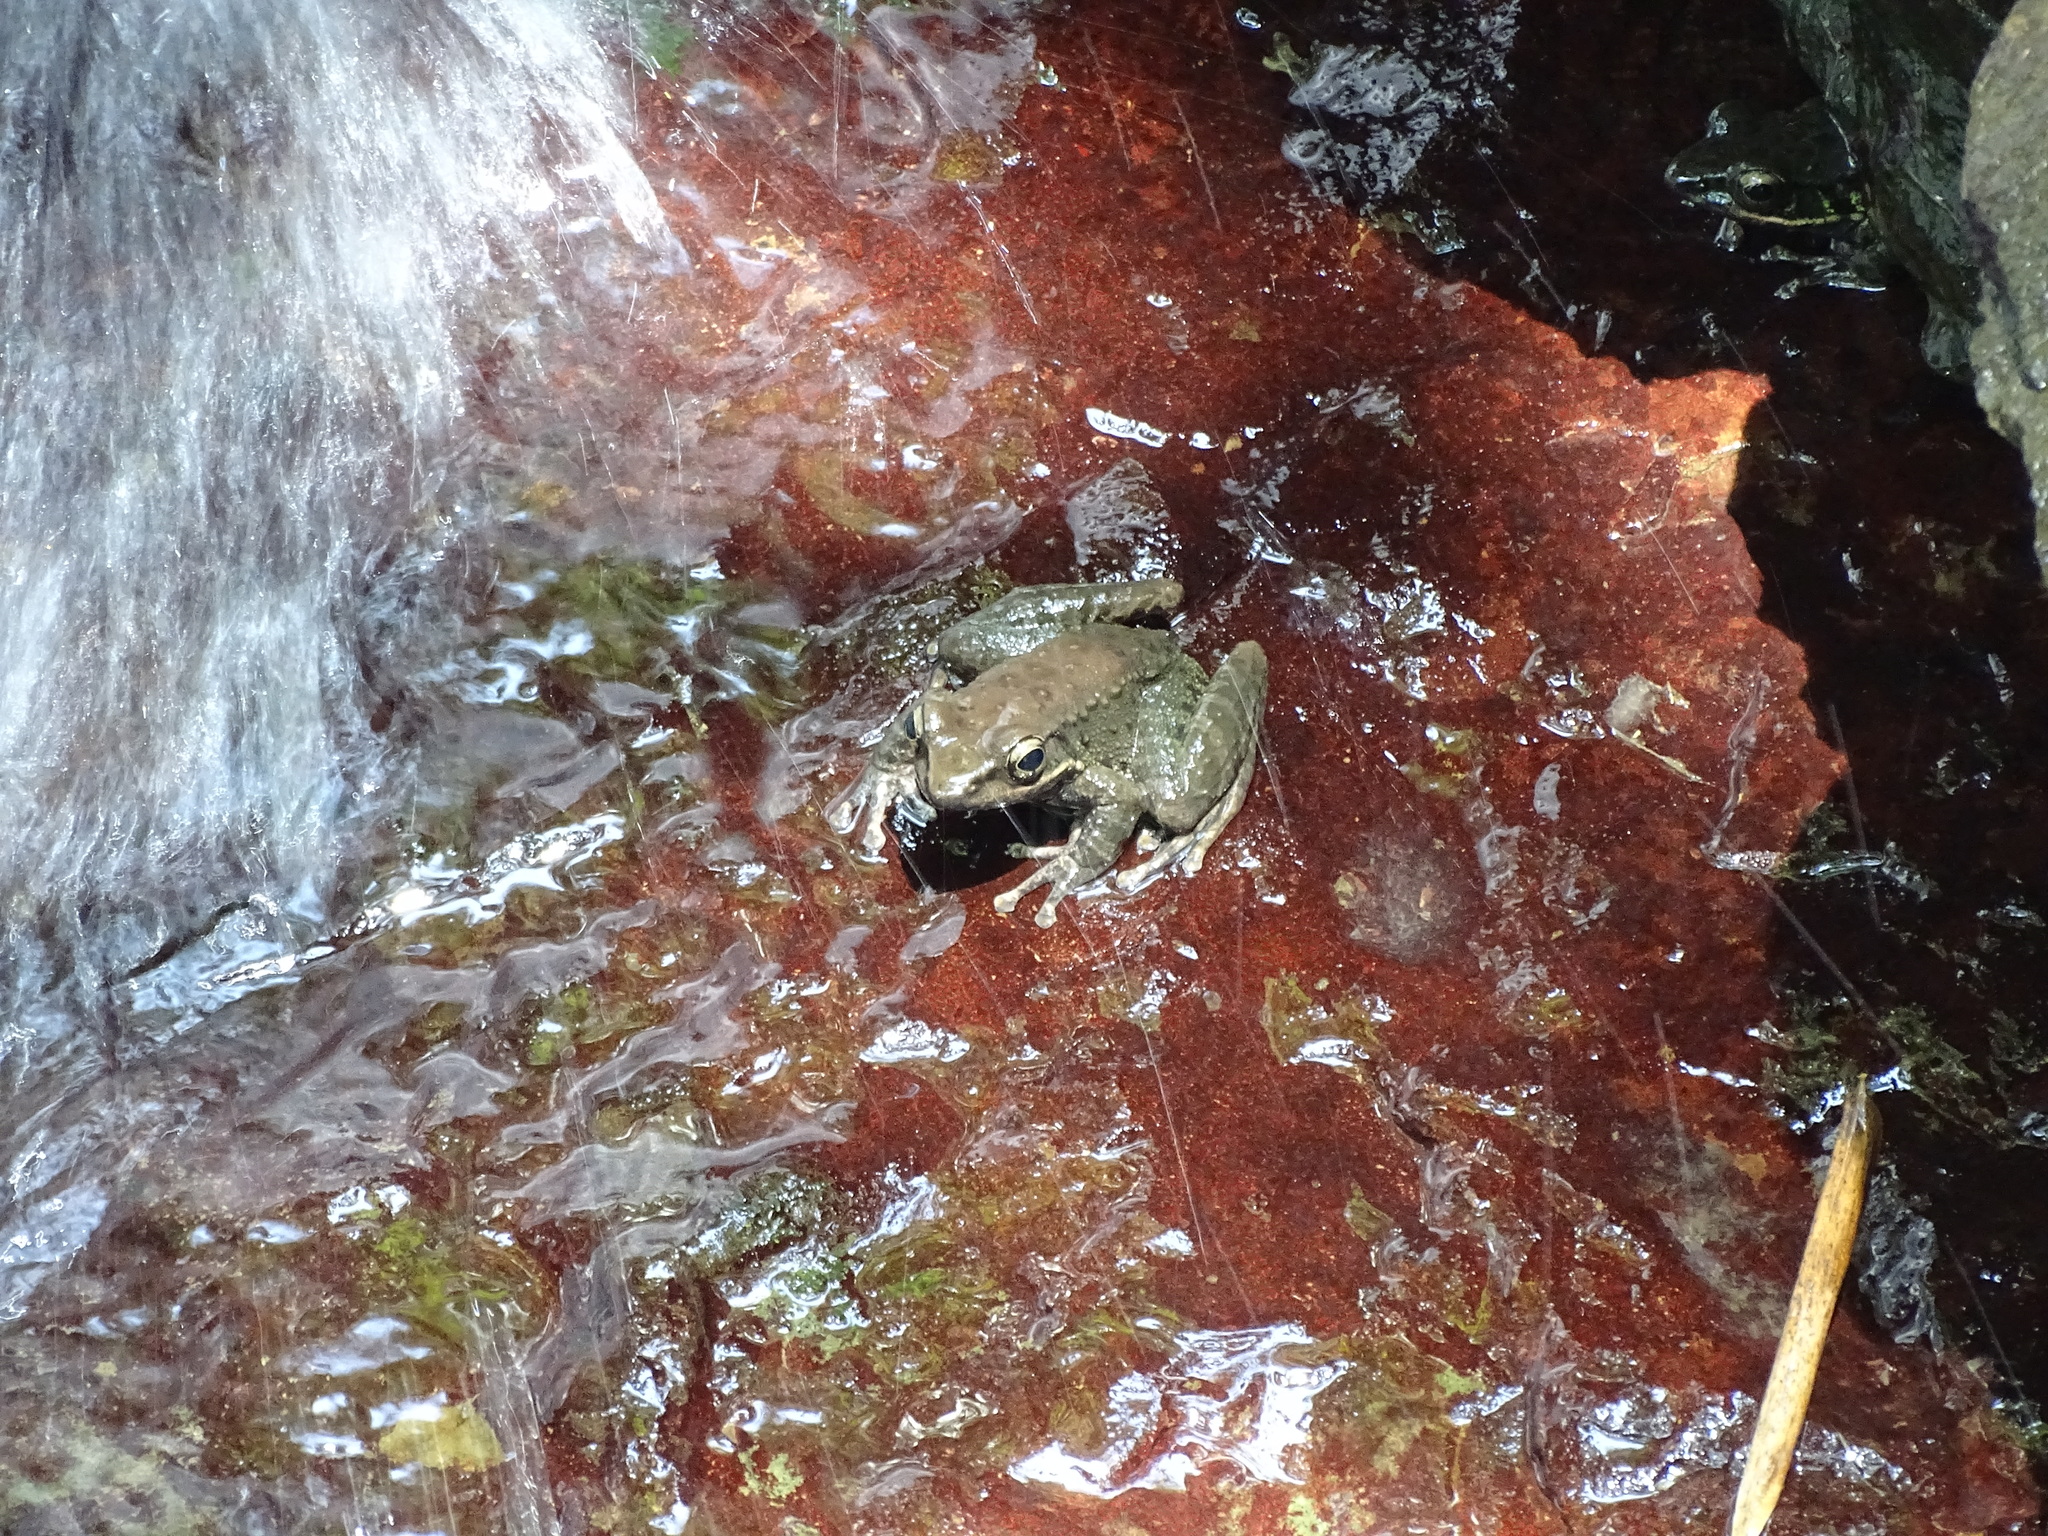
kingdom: Animalia
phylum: Chordata
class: Amphibia
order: Anura
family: Ranidae
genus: Odorrana
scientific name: Odorrana swinhoana
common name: Bangkimtsing frog
